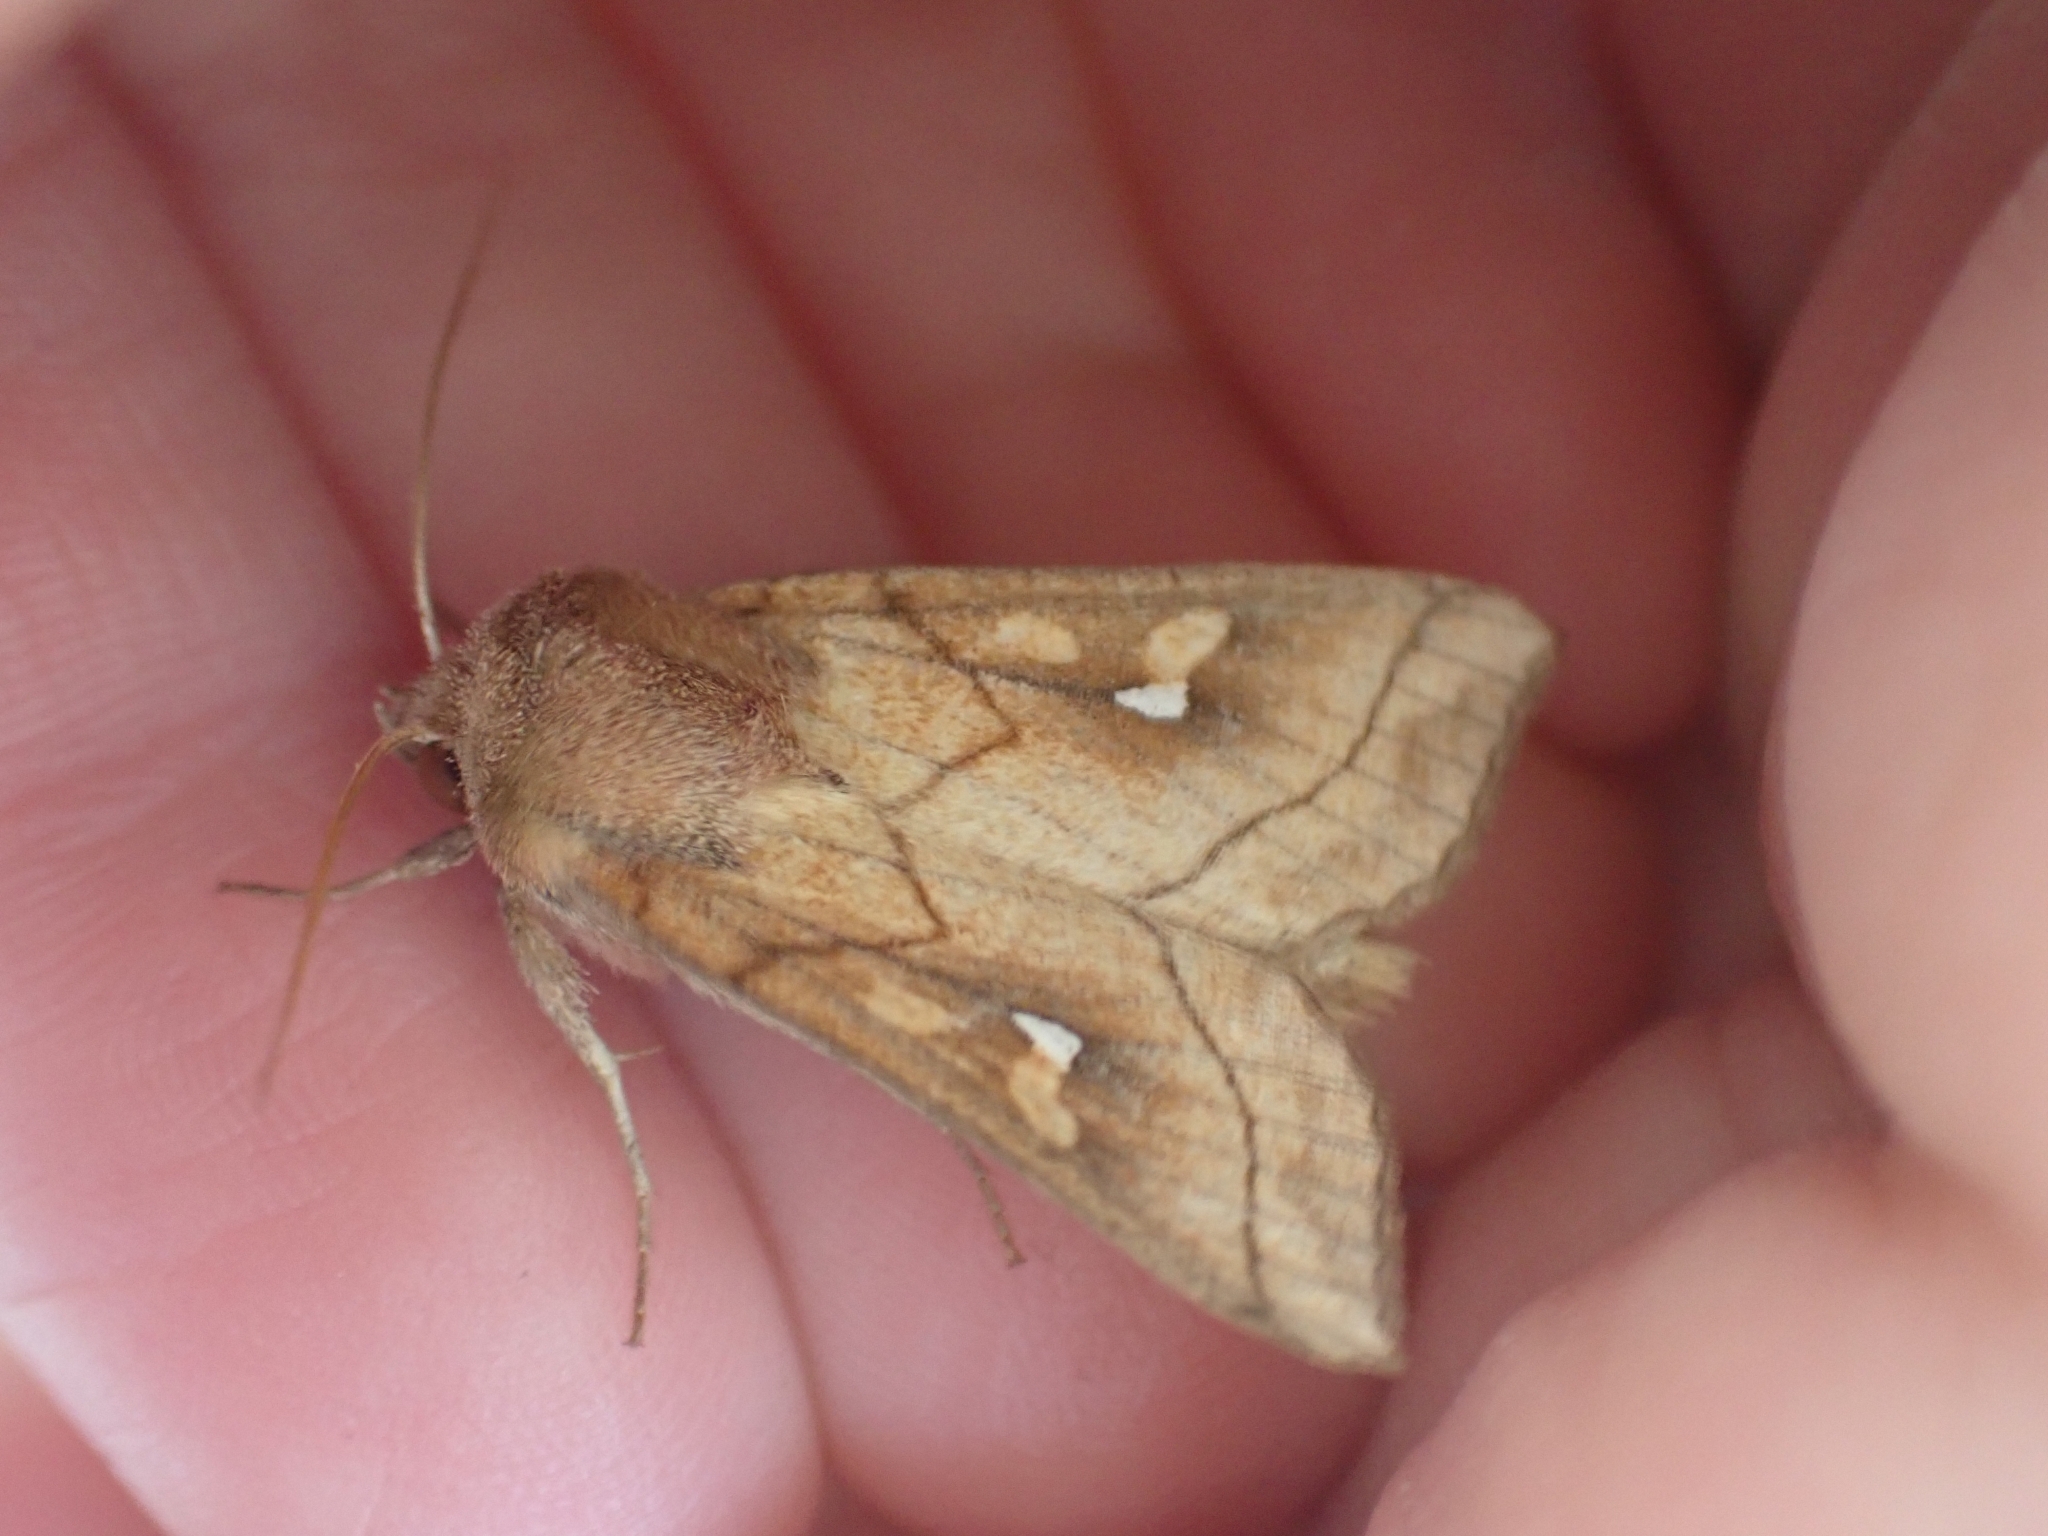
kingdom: Animalia
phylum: Arthropoda
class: Insecta
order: Lepidoptera
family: Noctuidae
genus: Mythimna
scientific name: Mythimna conigera
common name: Brown-line bright-eye
